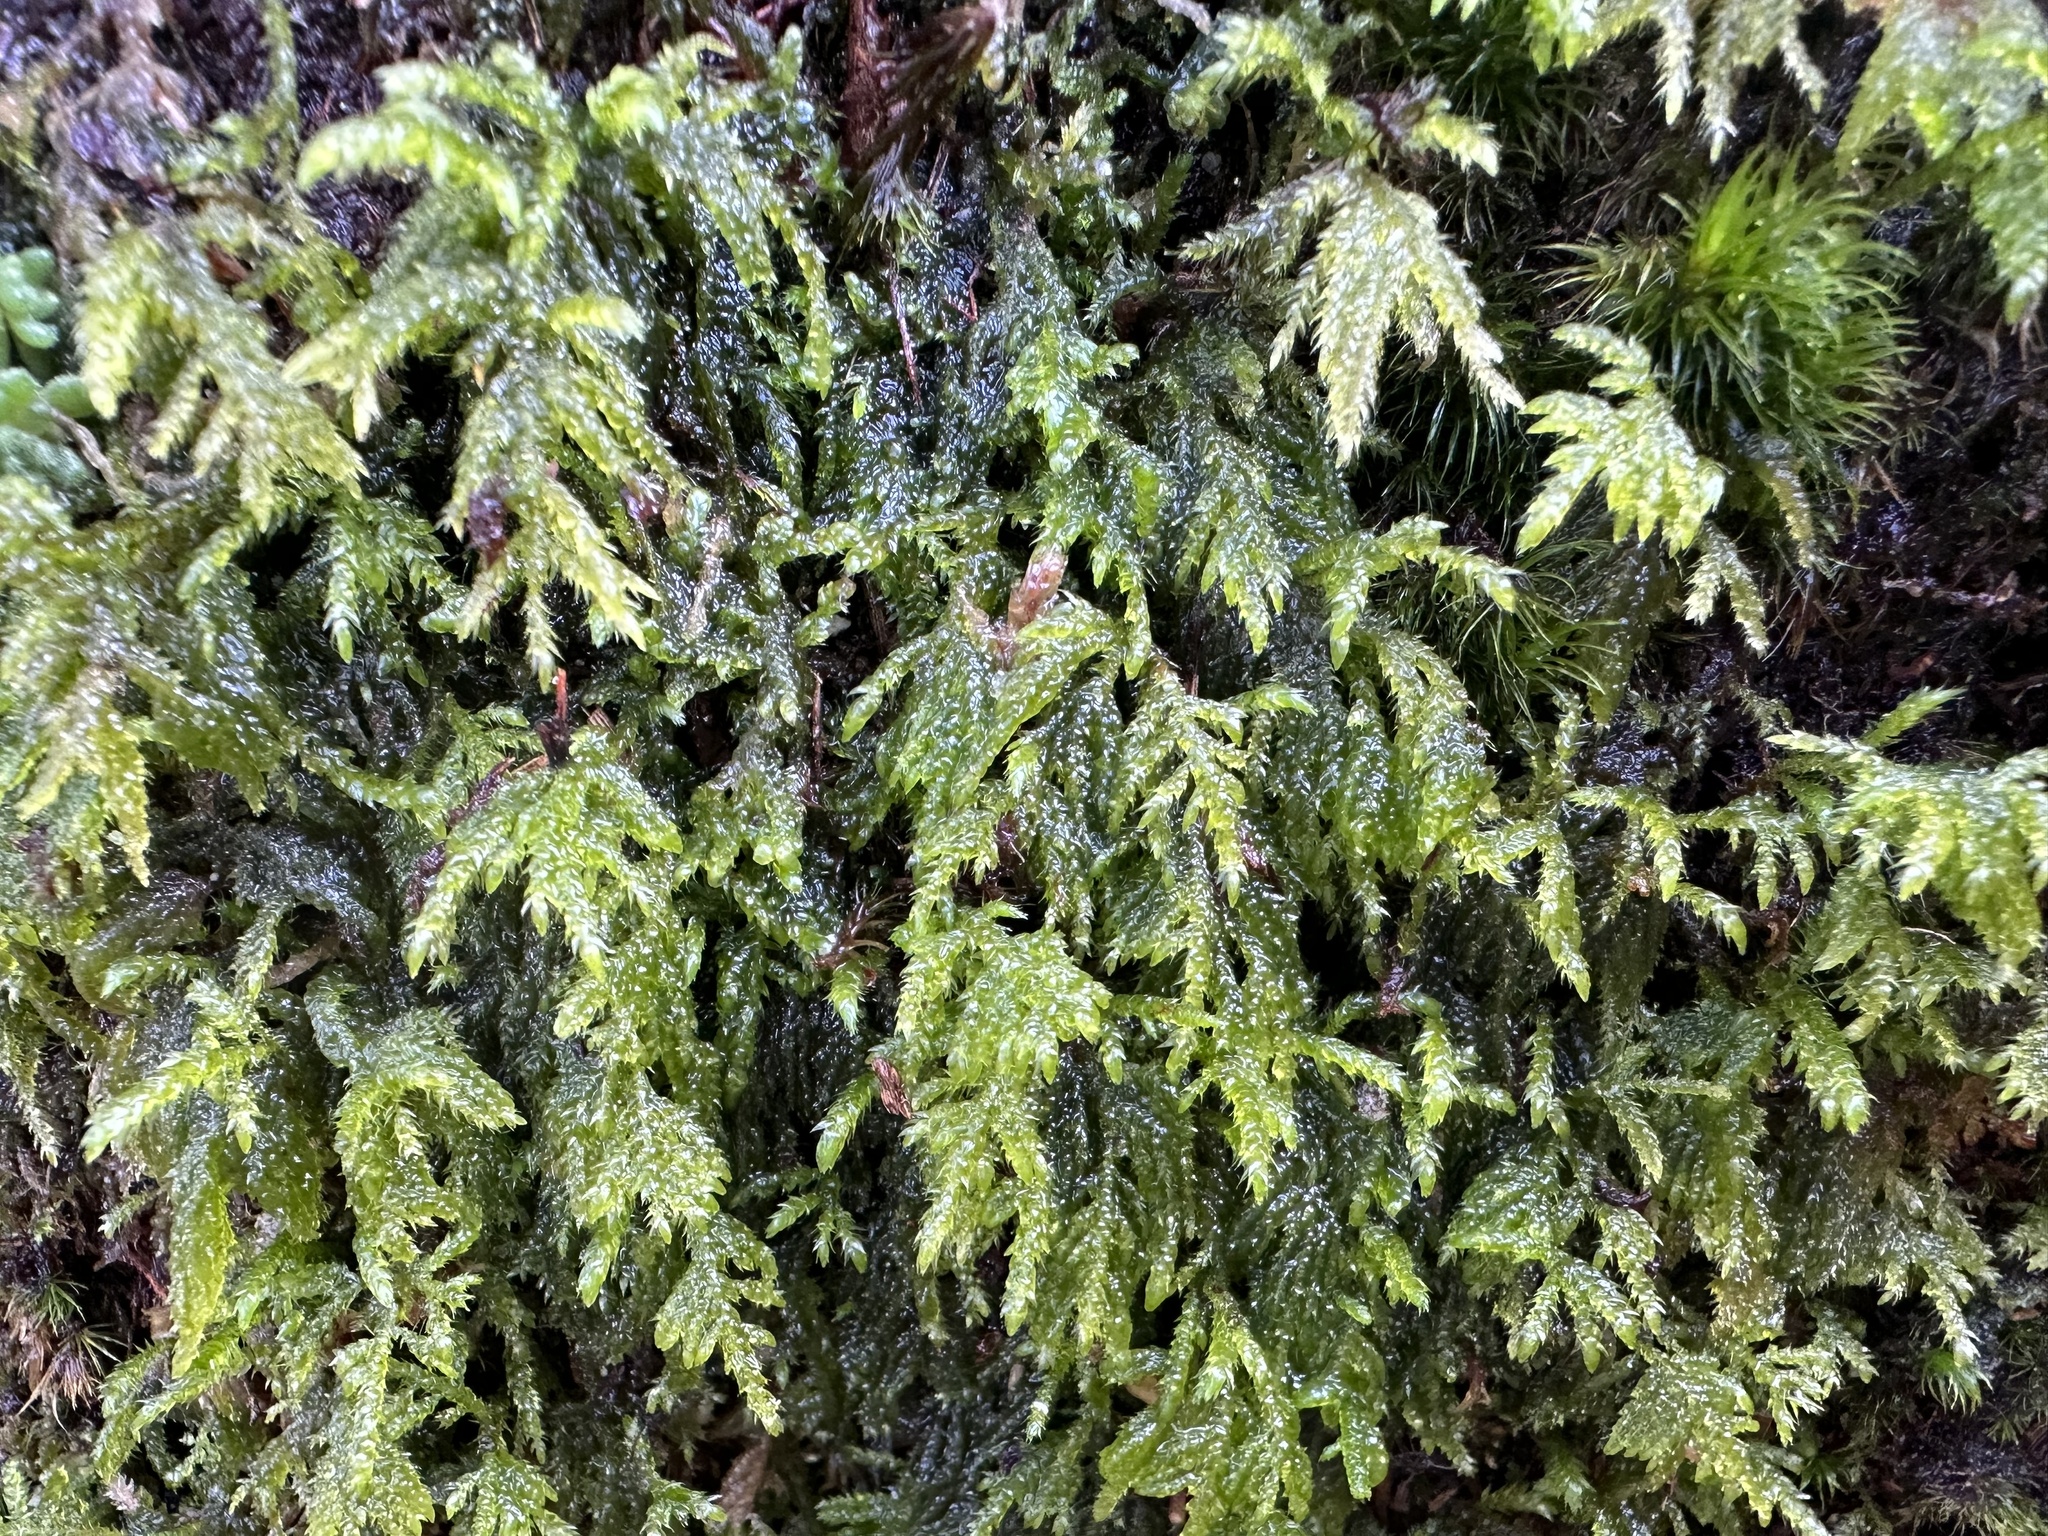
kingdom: Plantae
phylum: Bryophyta
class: Bryopsida
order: Hypnales
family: Neckeraceae
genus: Thamnobryum
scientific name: Thamnobryum alopecurum
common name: Fox-tail feather-moss
